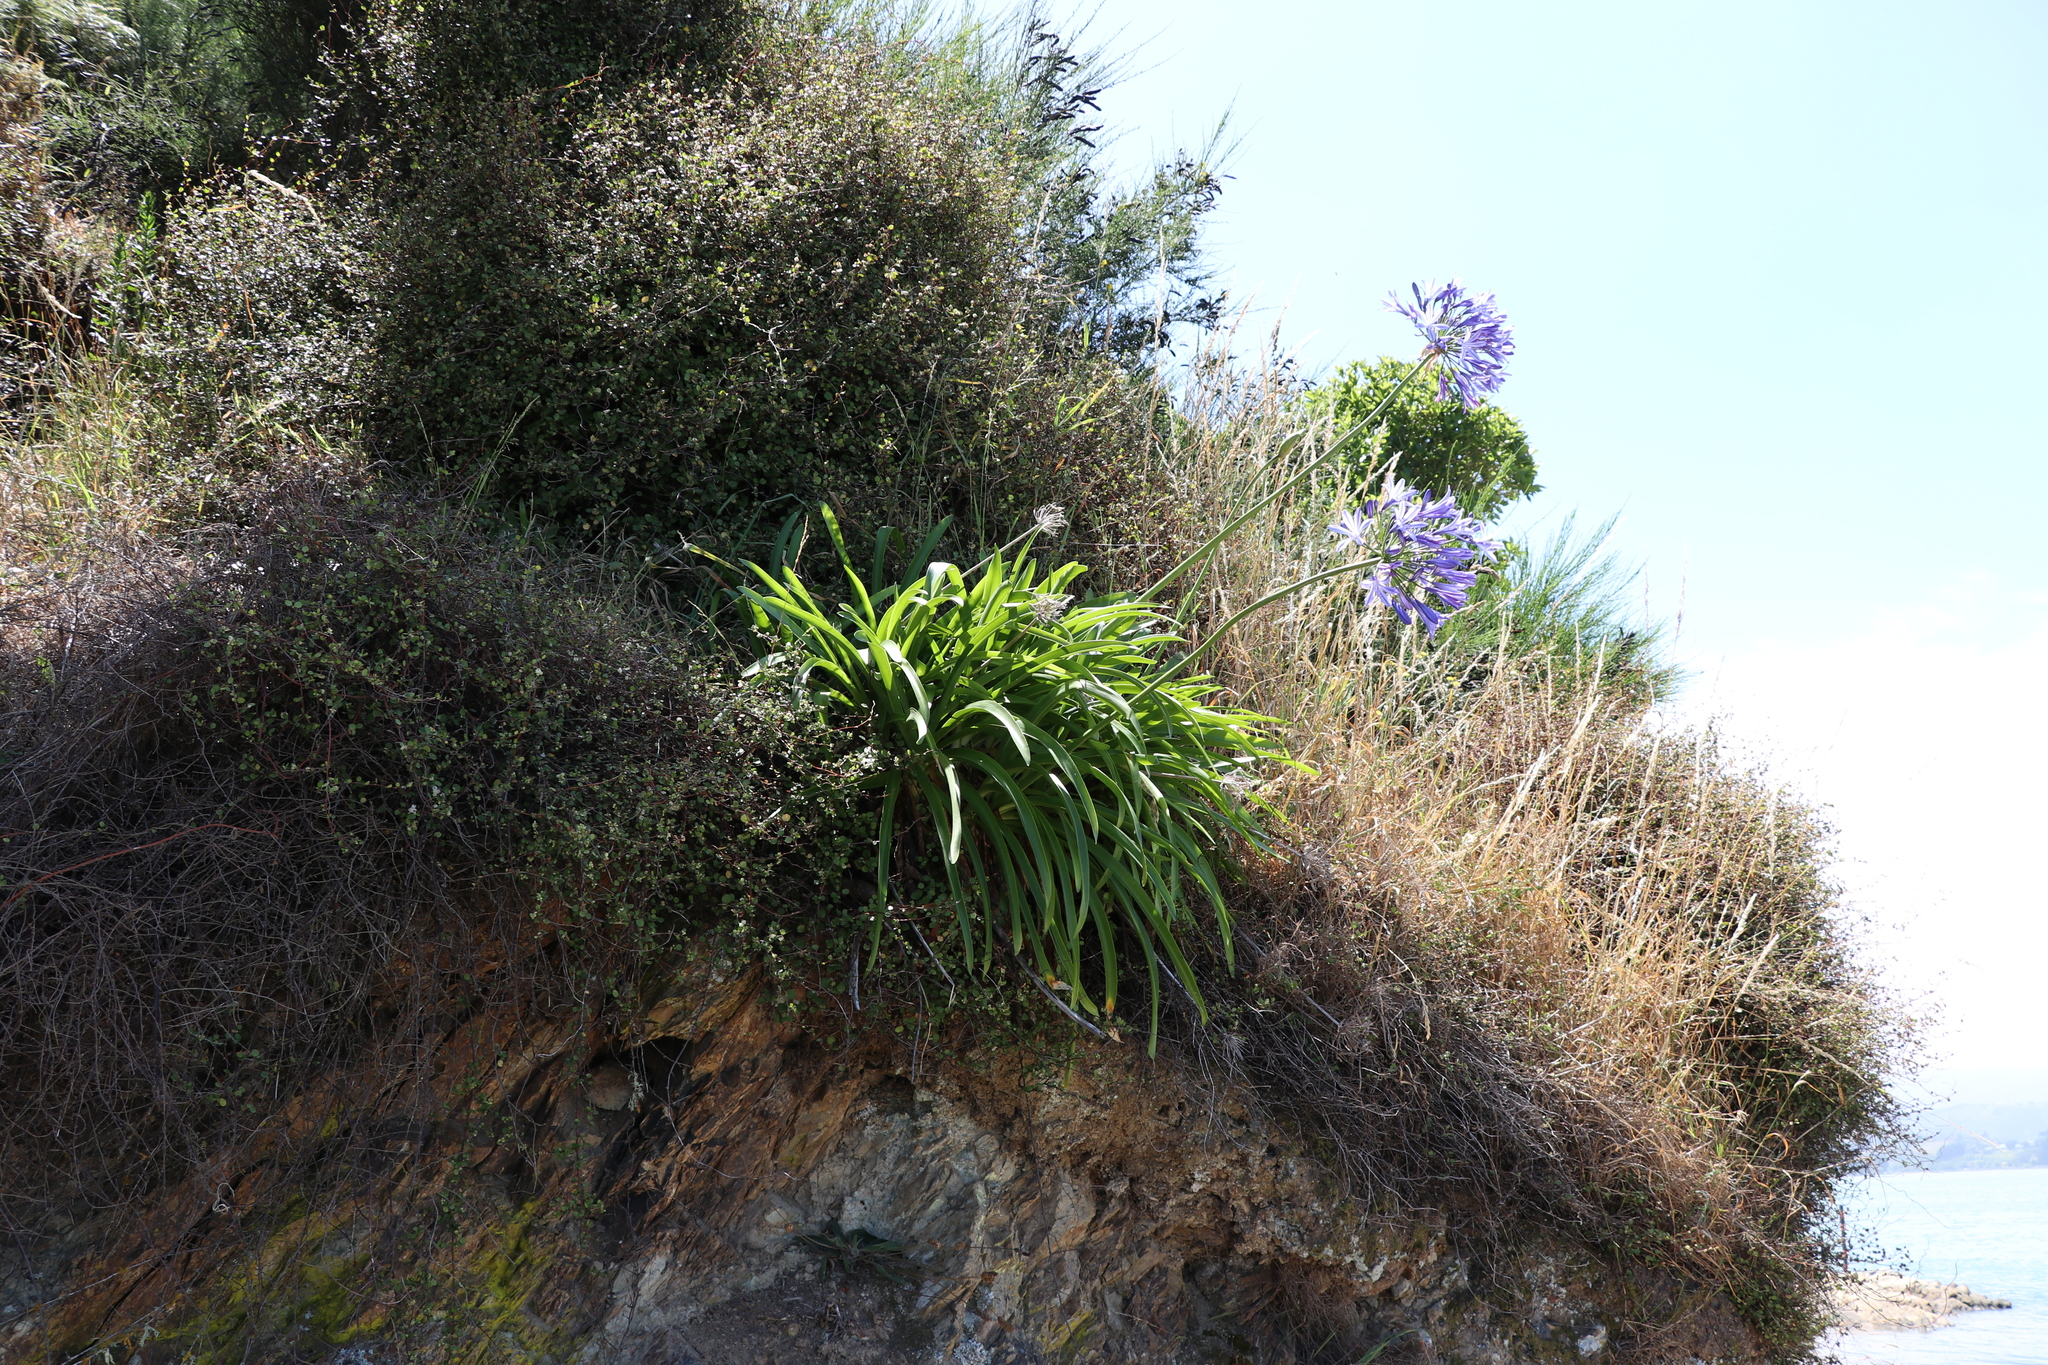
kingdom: Plantae
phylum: Tracheophyta
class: Liliopsida
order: Asparagales
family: Amaryllidaceae
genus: Agapanthus
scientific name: Agapanthus praecox
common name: African-lily
